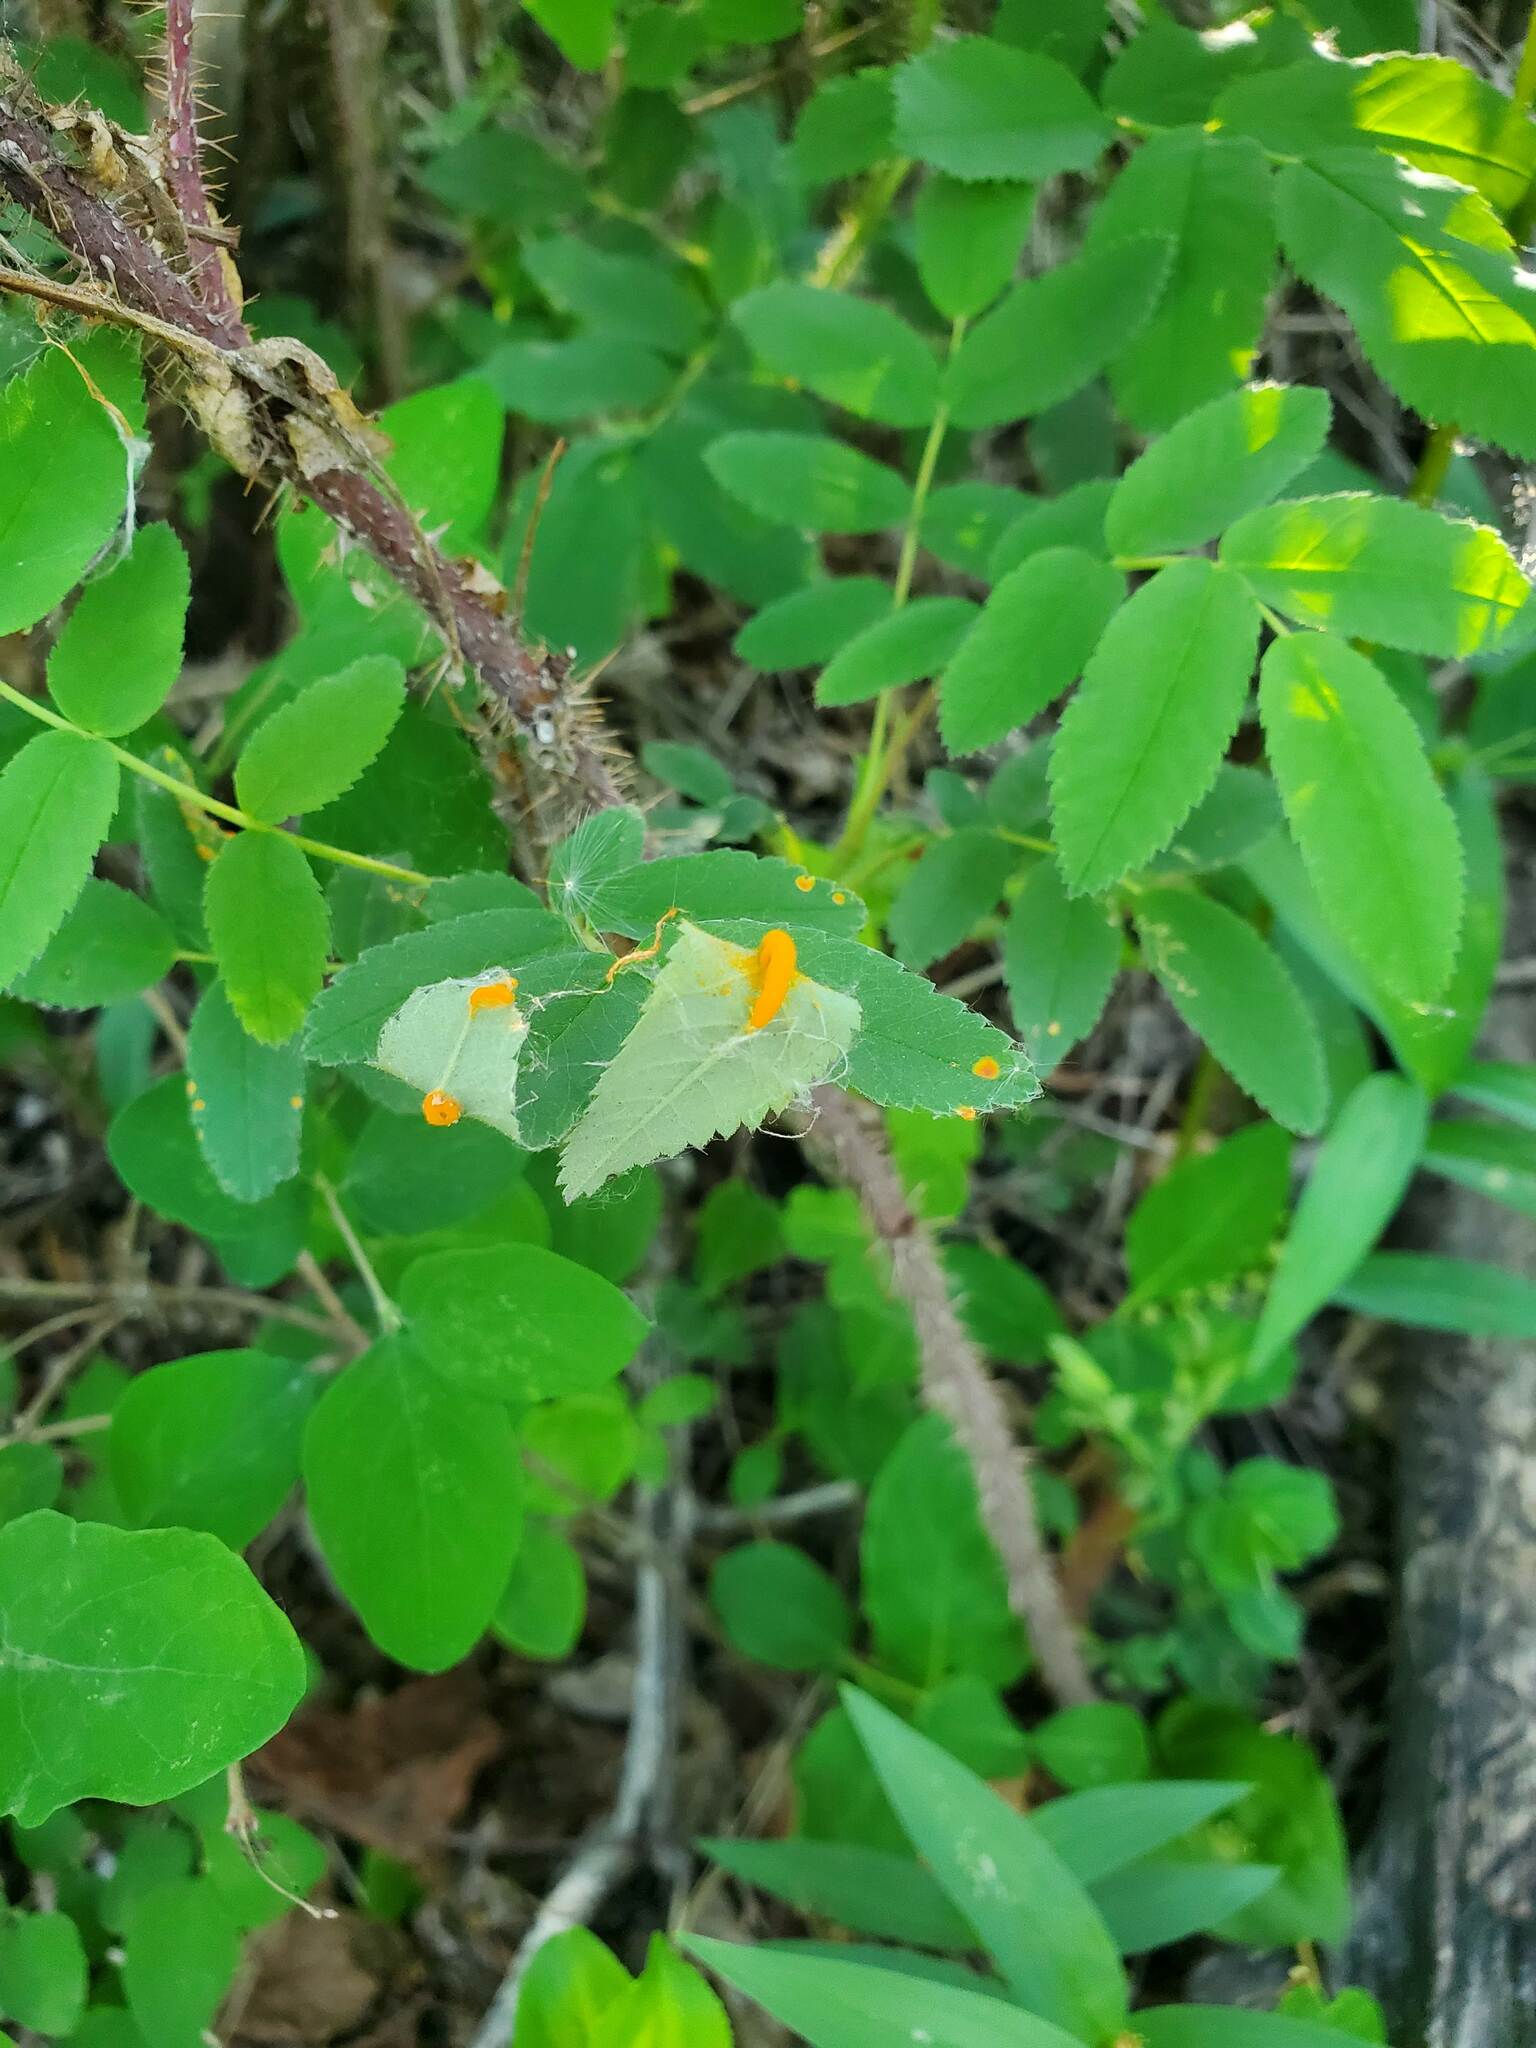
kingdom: Fungi
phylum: Basidiomycota
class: Pucciniomycetes
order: Pucciniales
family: Phragmidiaceae
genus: Phragmidium
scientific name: Phragmidium rosae-multiflorae
